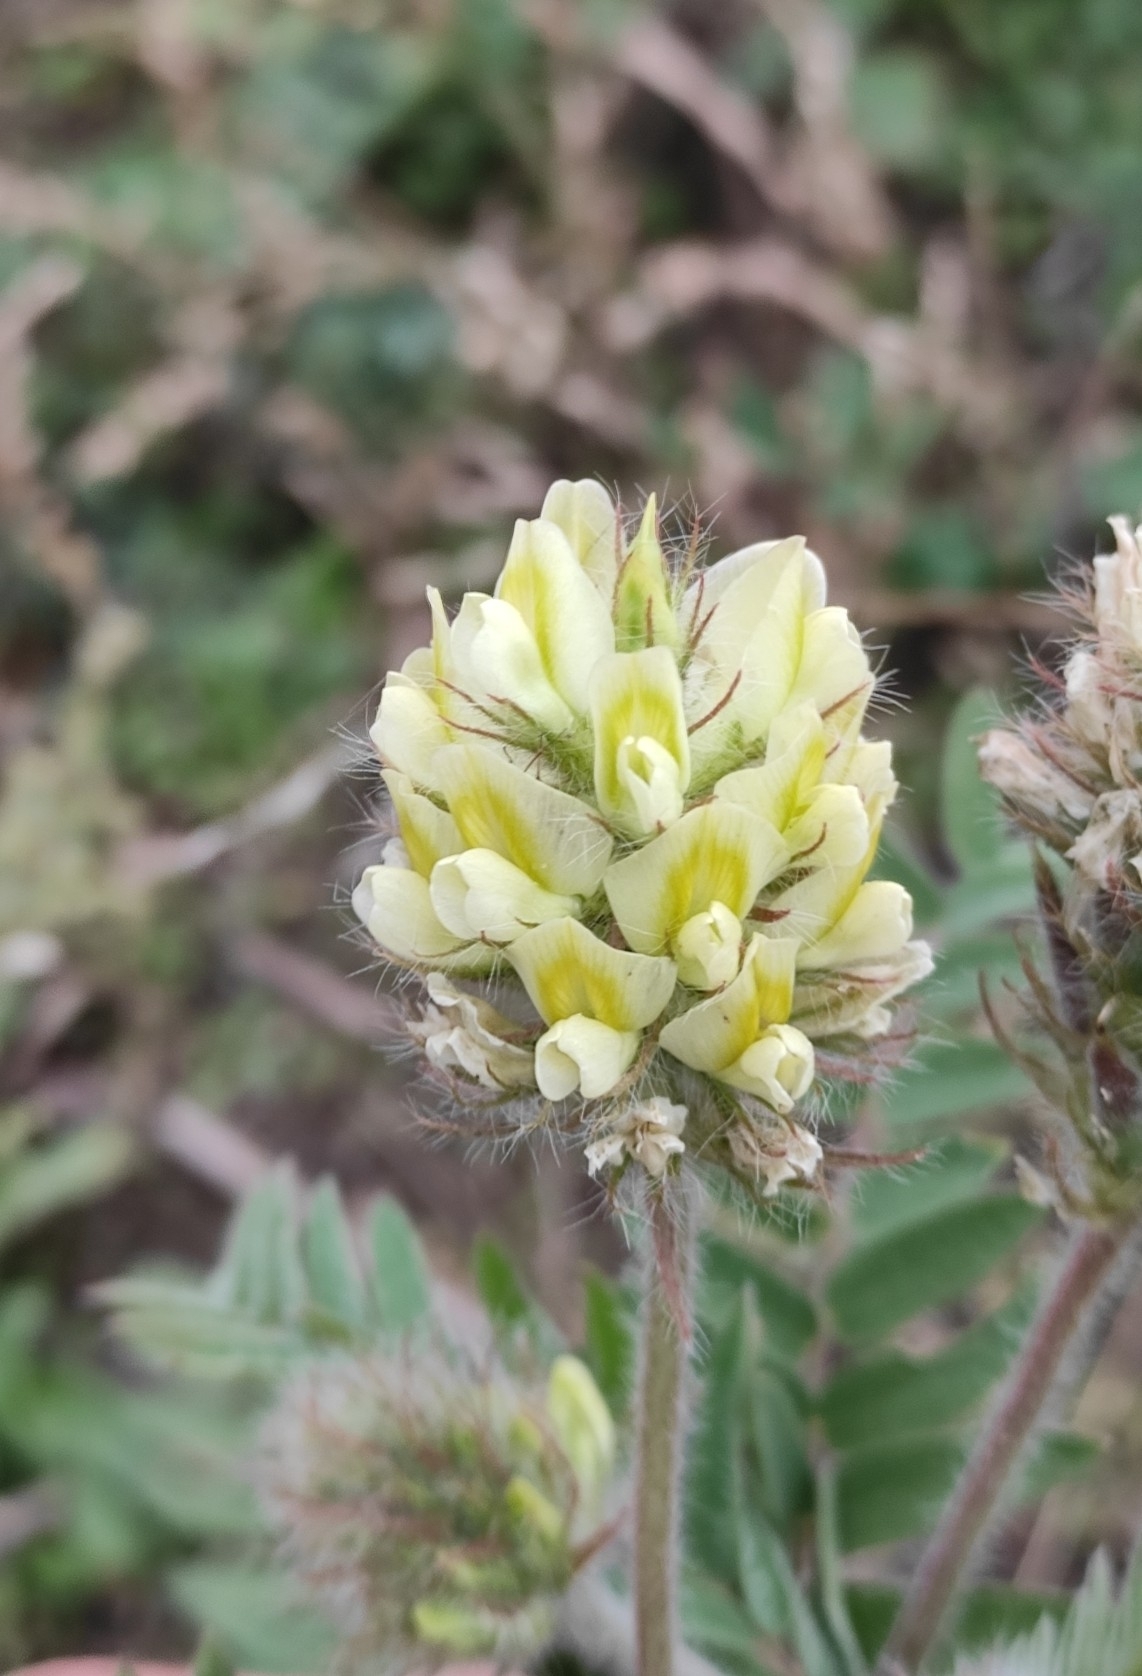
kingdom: Plantae
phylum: Tracheophyta
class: Magnoliopsida
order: Fabales
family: Fabaceae
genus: Oxytropis
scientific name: Oxytropis pilosa
